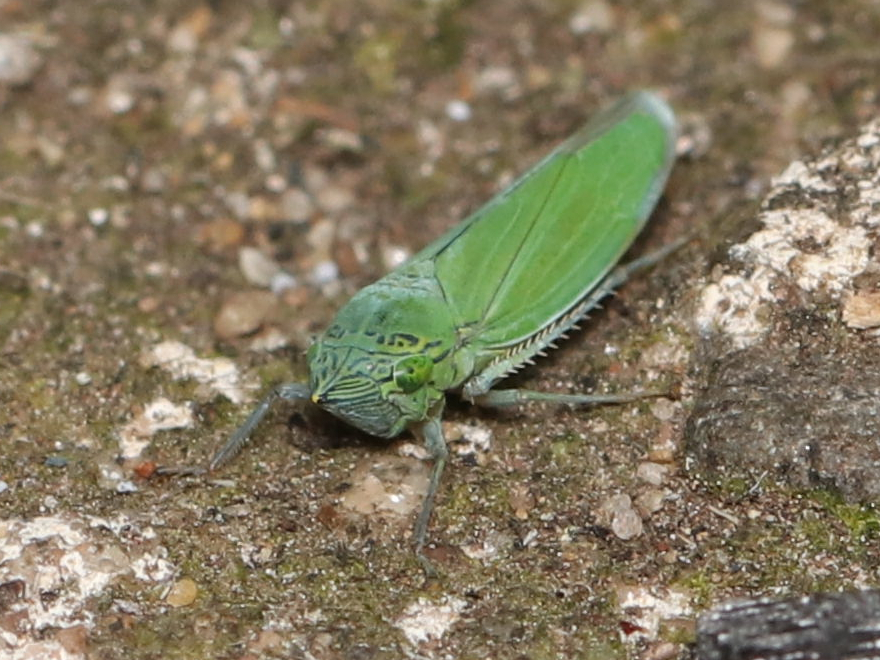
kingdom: Animalia
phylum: Arthropoda
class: Insecta
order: Hemiptera
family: Cicadellidae
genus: Draeculacephala
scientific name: Draeculacephala inscripta
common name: Leafhopper
